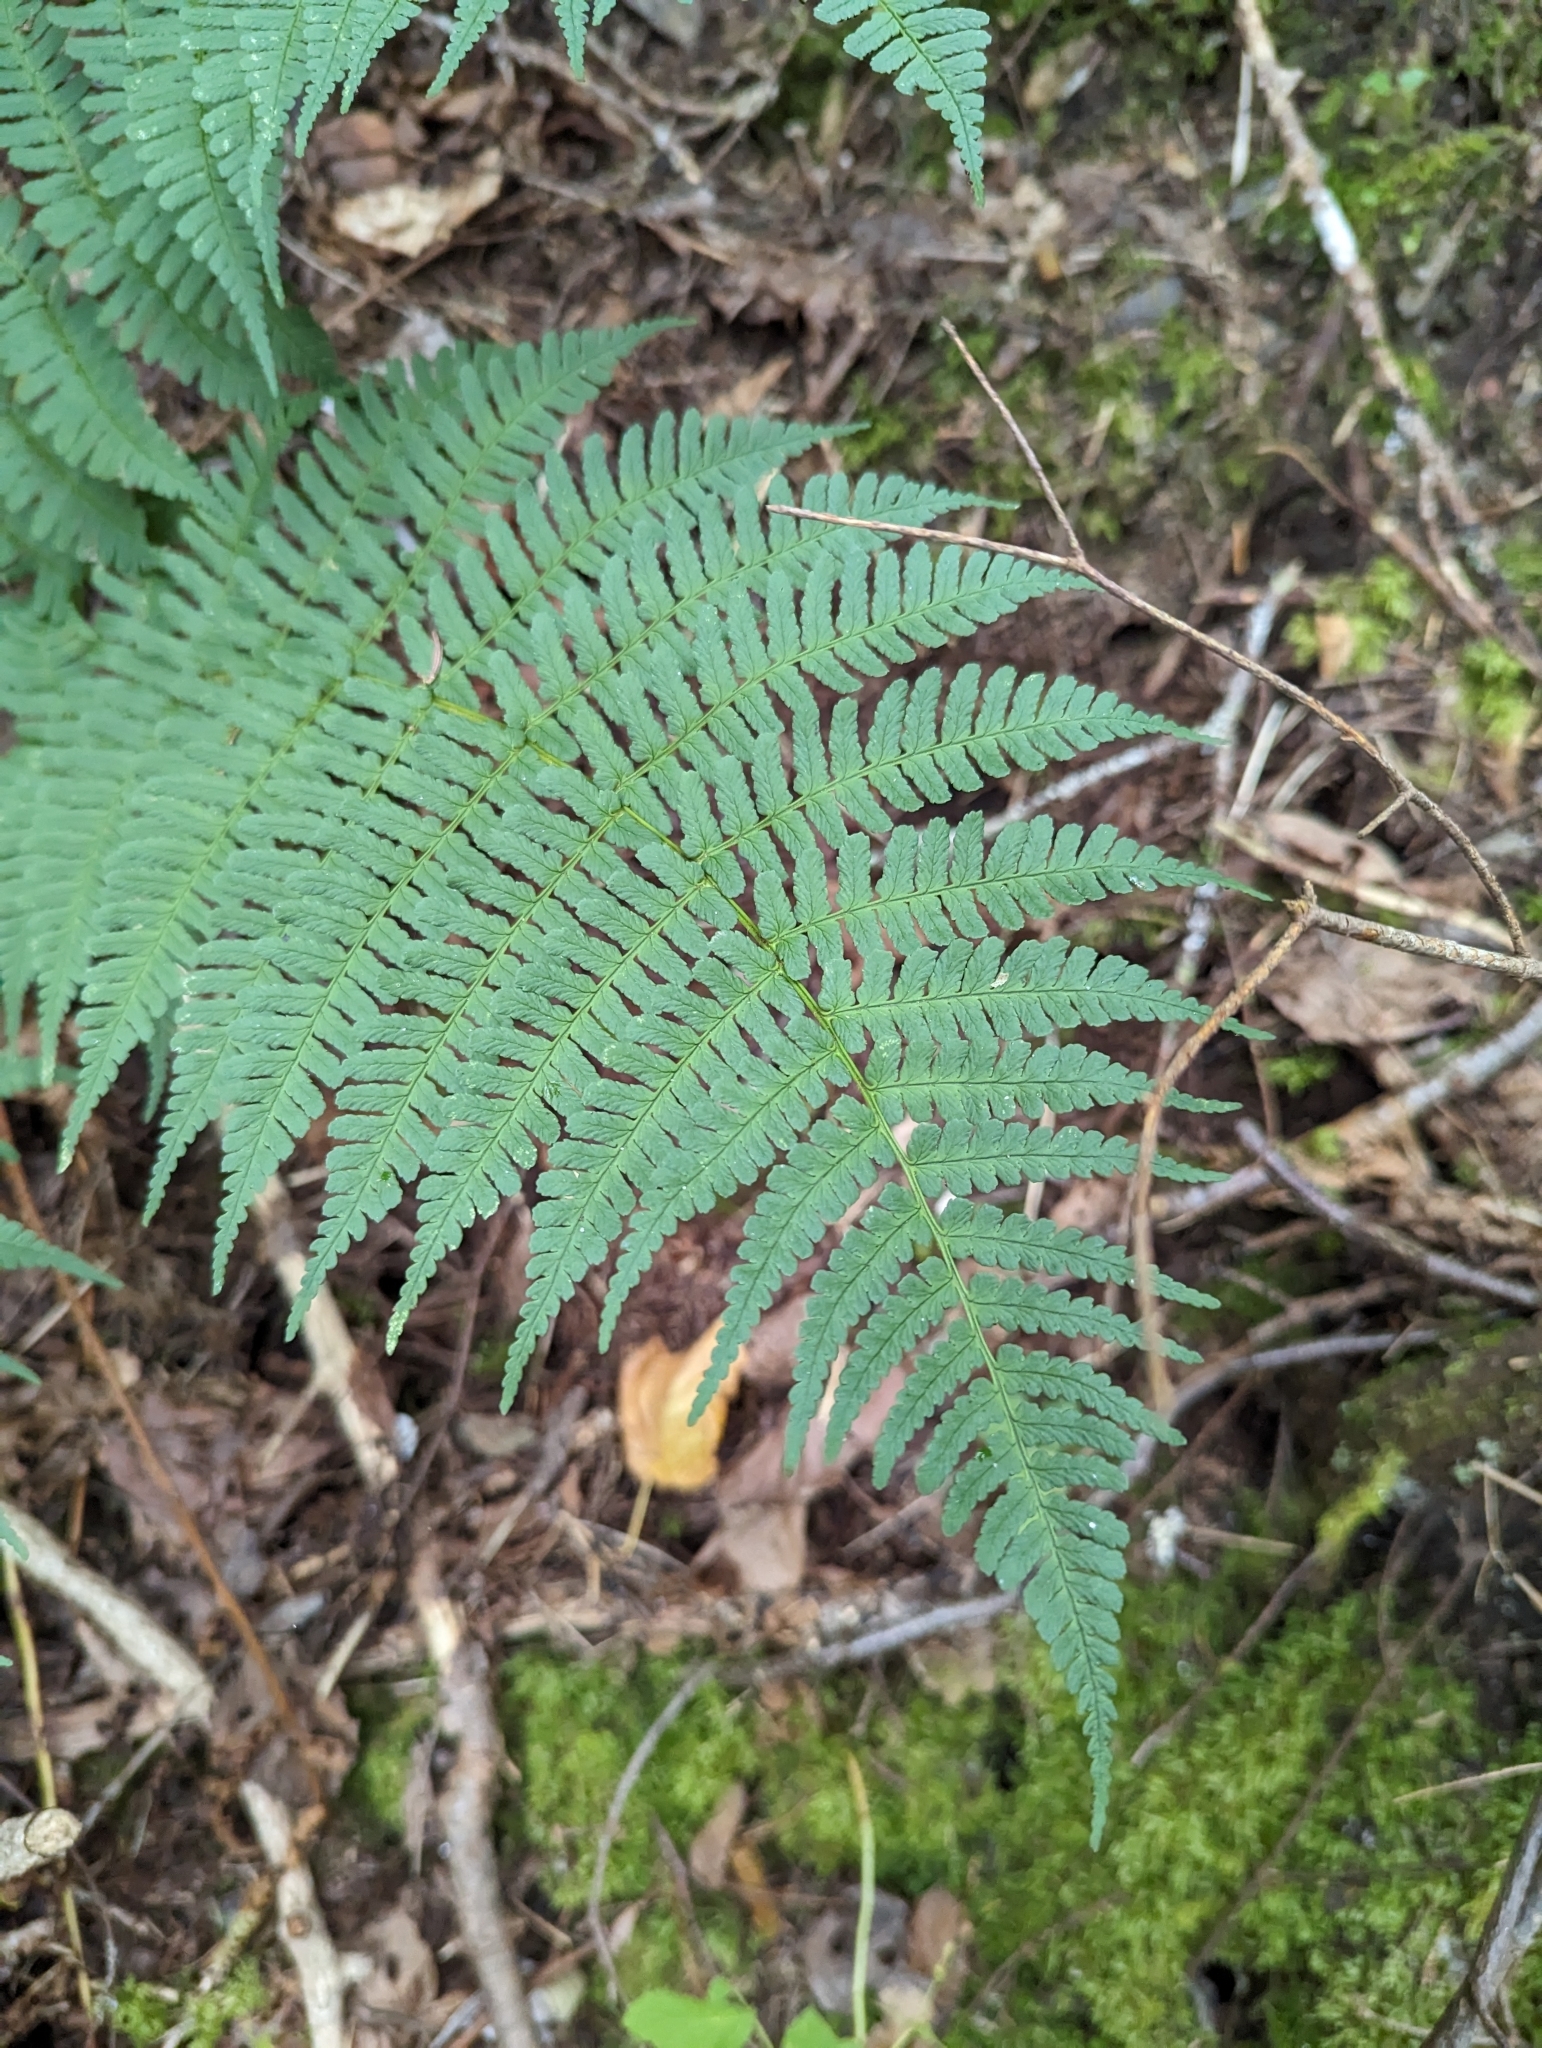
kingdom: Plantae
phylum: Tracheophyta
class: Polypodiopsida
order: Polypodiales
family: Dryopteridaceae
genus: Dryopteris
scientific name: Dryopteris marginalis
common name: Marginal wood fern
